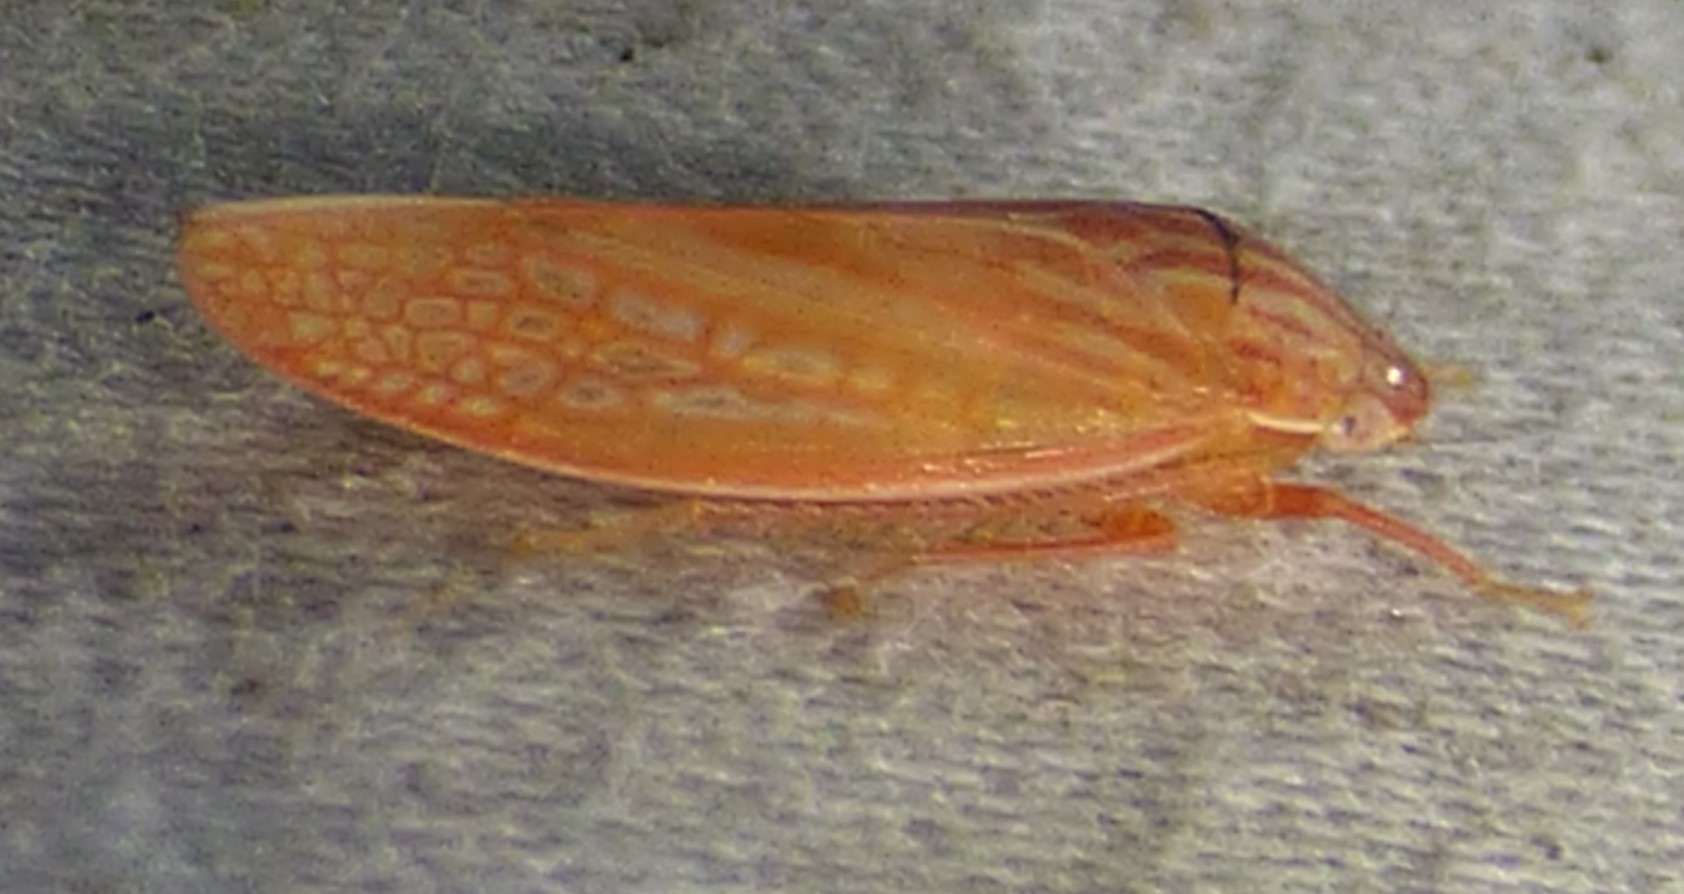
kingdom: Animalia
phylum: Arthropoda
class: Insecta
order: Hemiptera
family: Cicadellidae
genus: Gyponana
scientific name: Gyponana gladia
